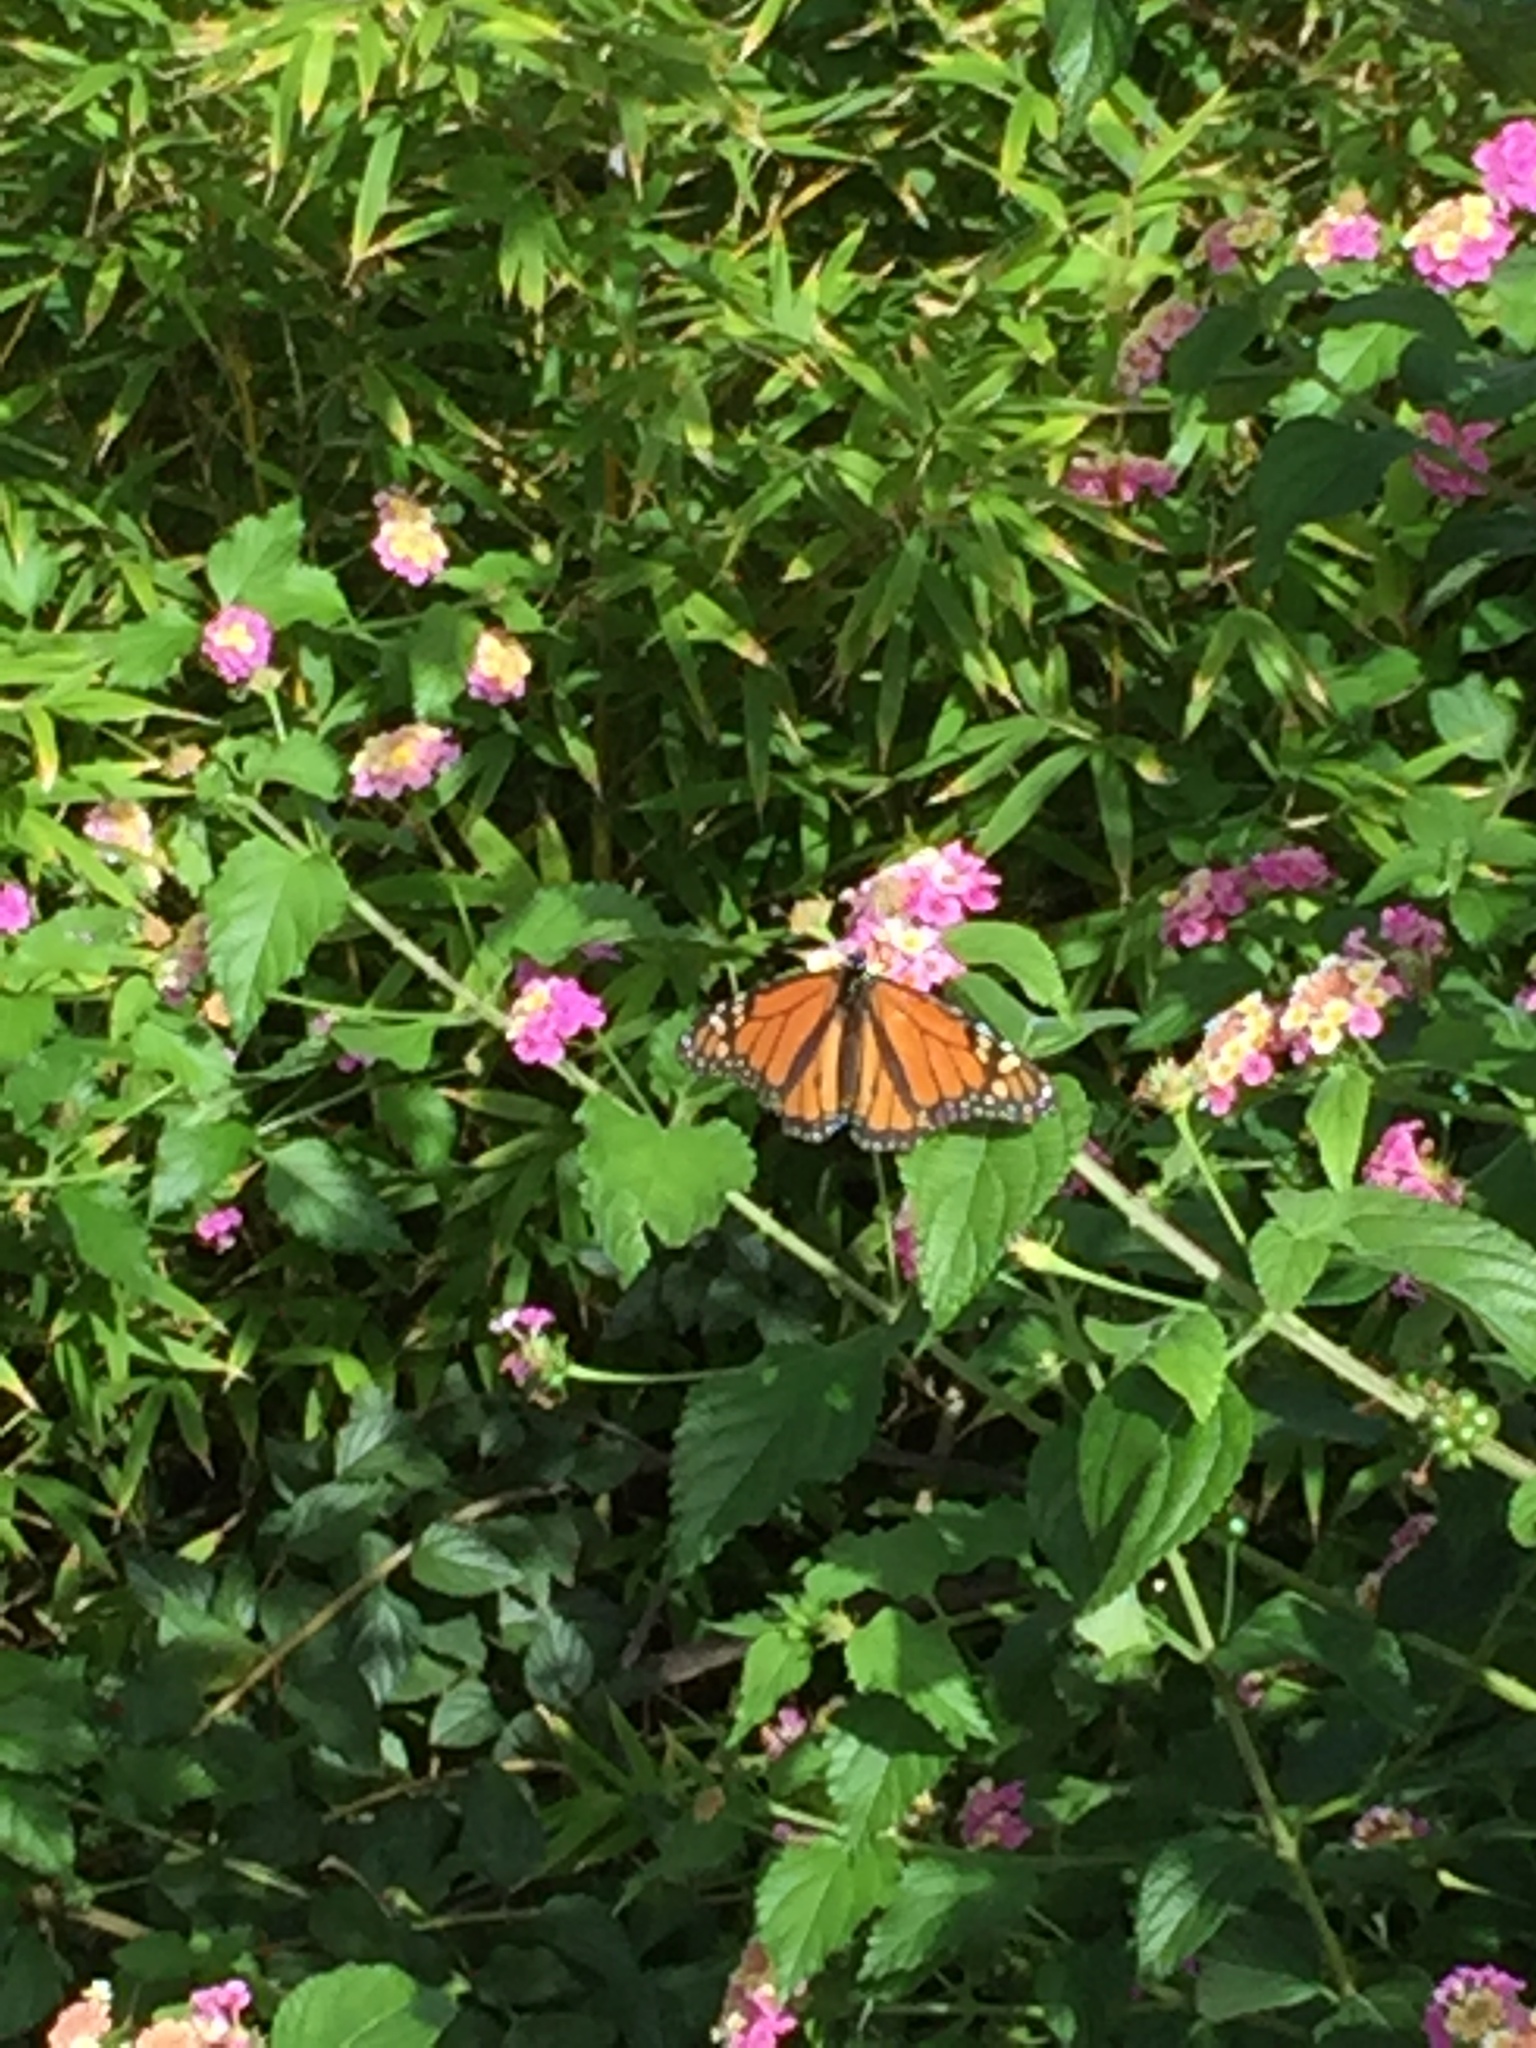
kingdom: Animalia
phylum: Arthropoda
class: Insecta
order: Lepidoptera
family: Nymphalidae
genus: Danaus
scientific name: Danaus plexippus
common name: Monarch
